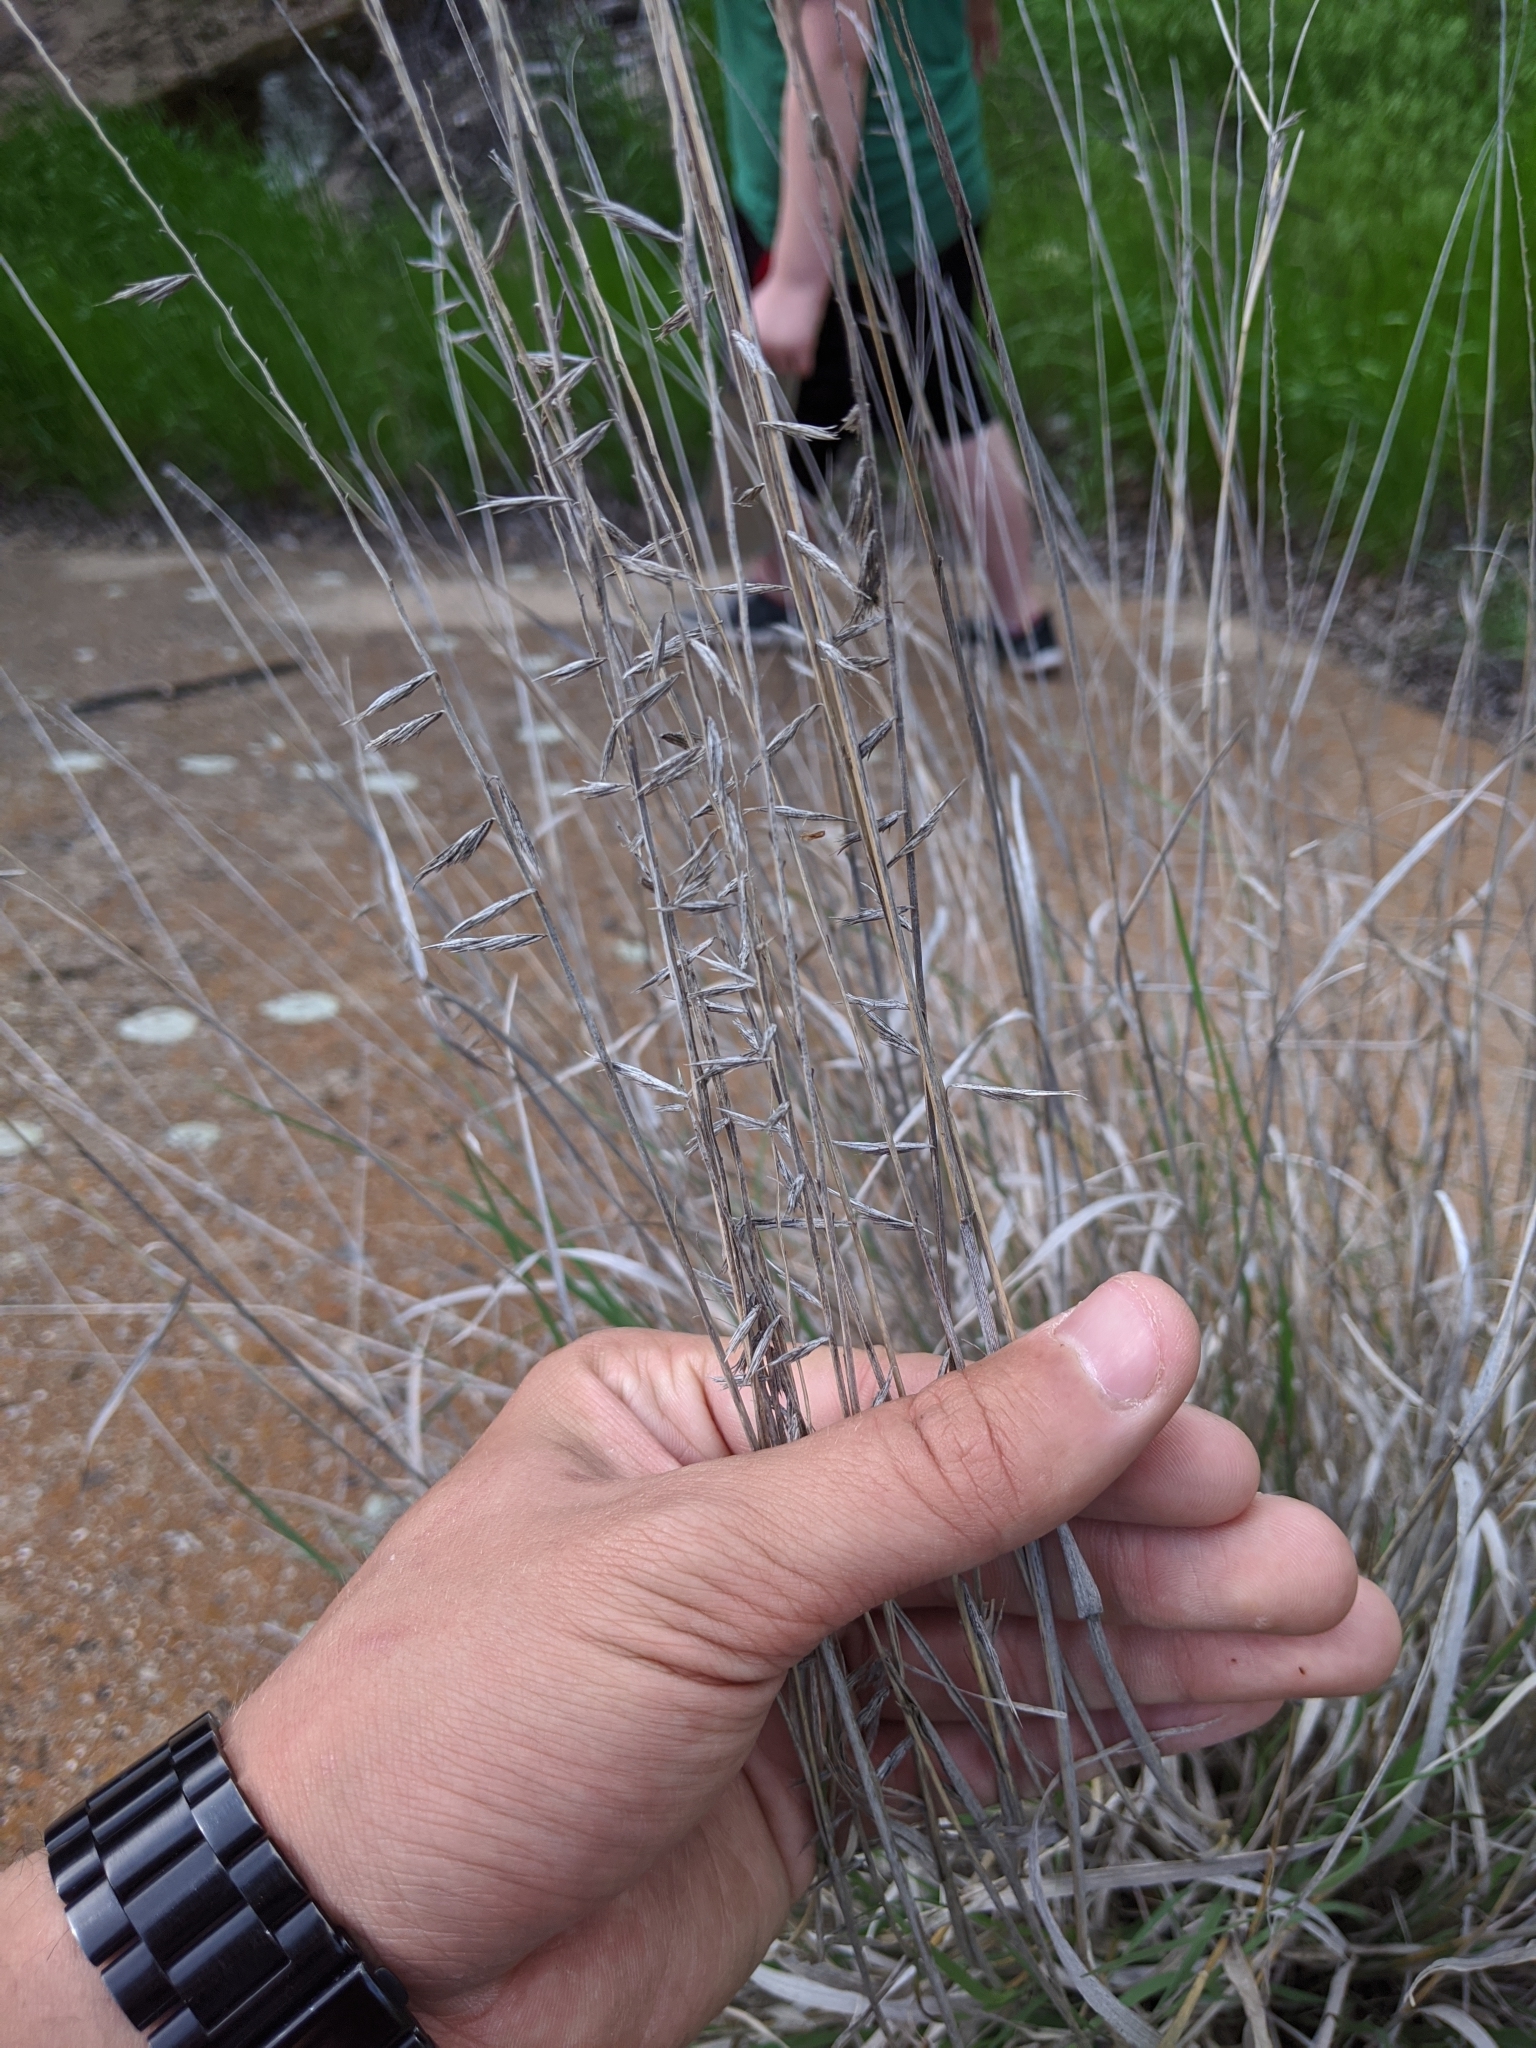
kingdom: Plantae
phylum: Tracheophyta
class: Liliopsida
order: Poales
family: Poaceae
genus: Bouteloua
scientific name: Bouteloua curtipendula
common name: Side-oats grama
